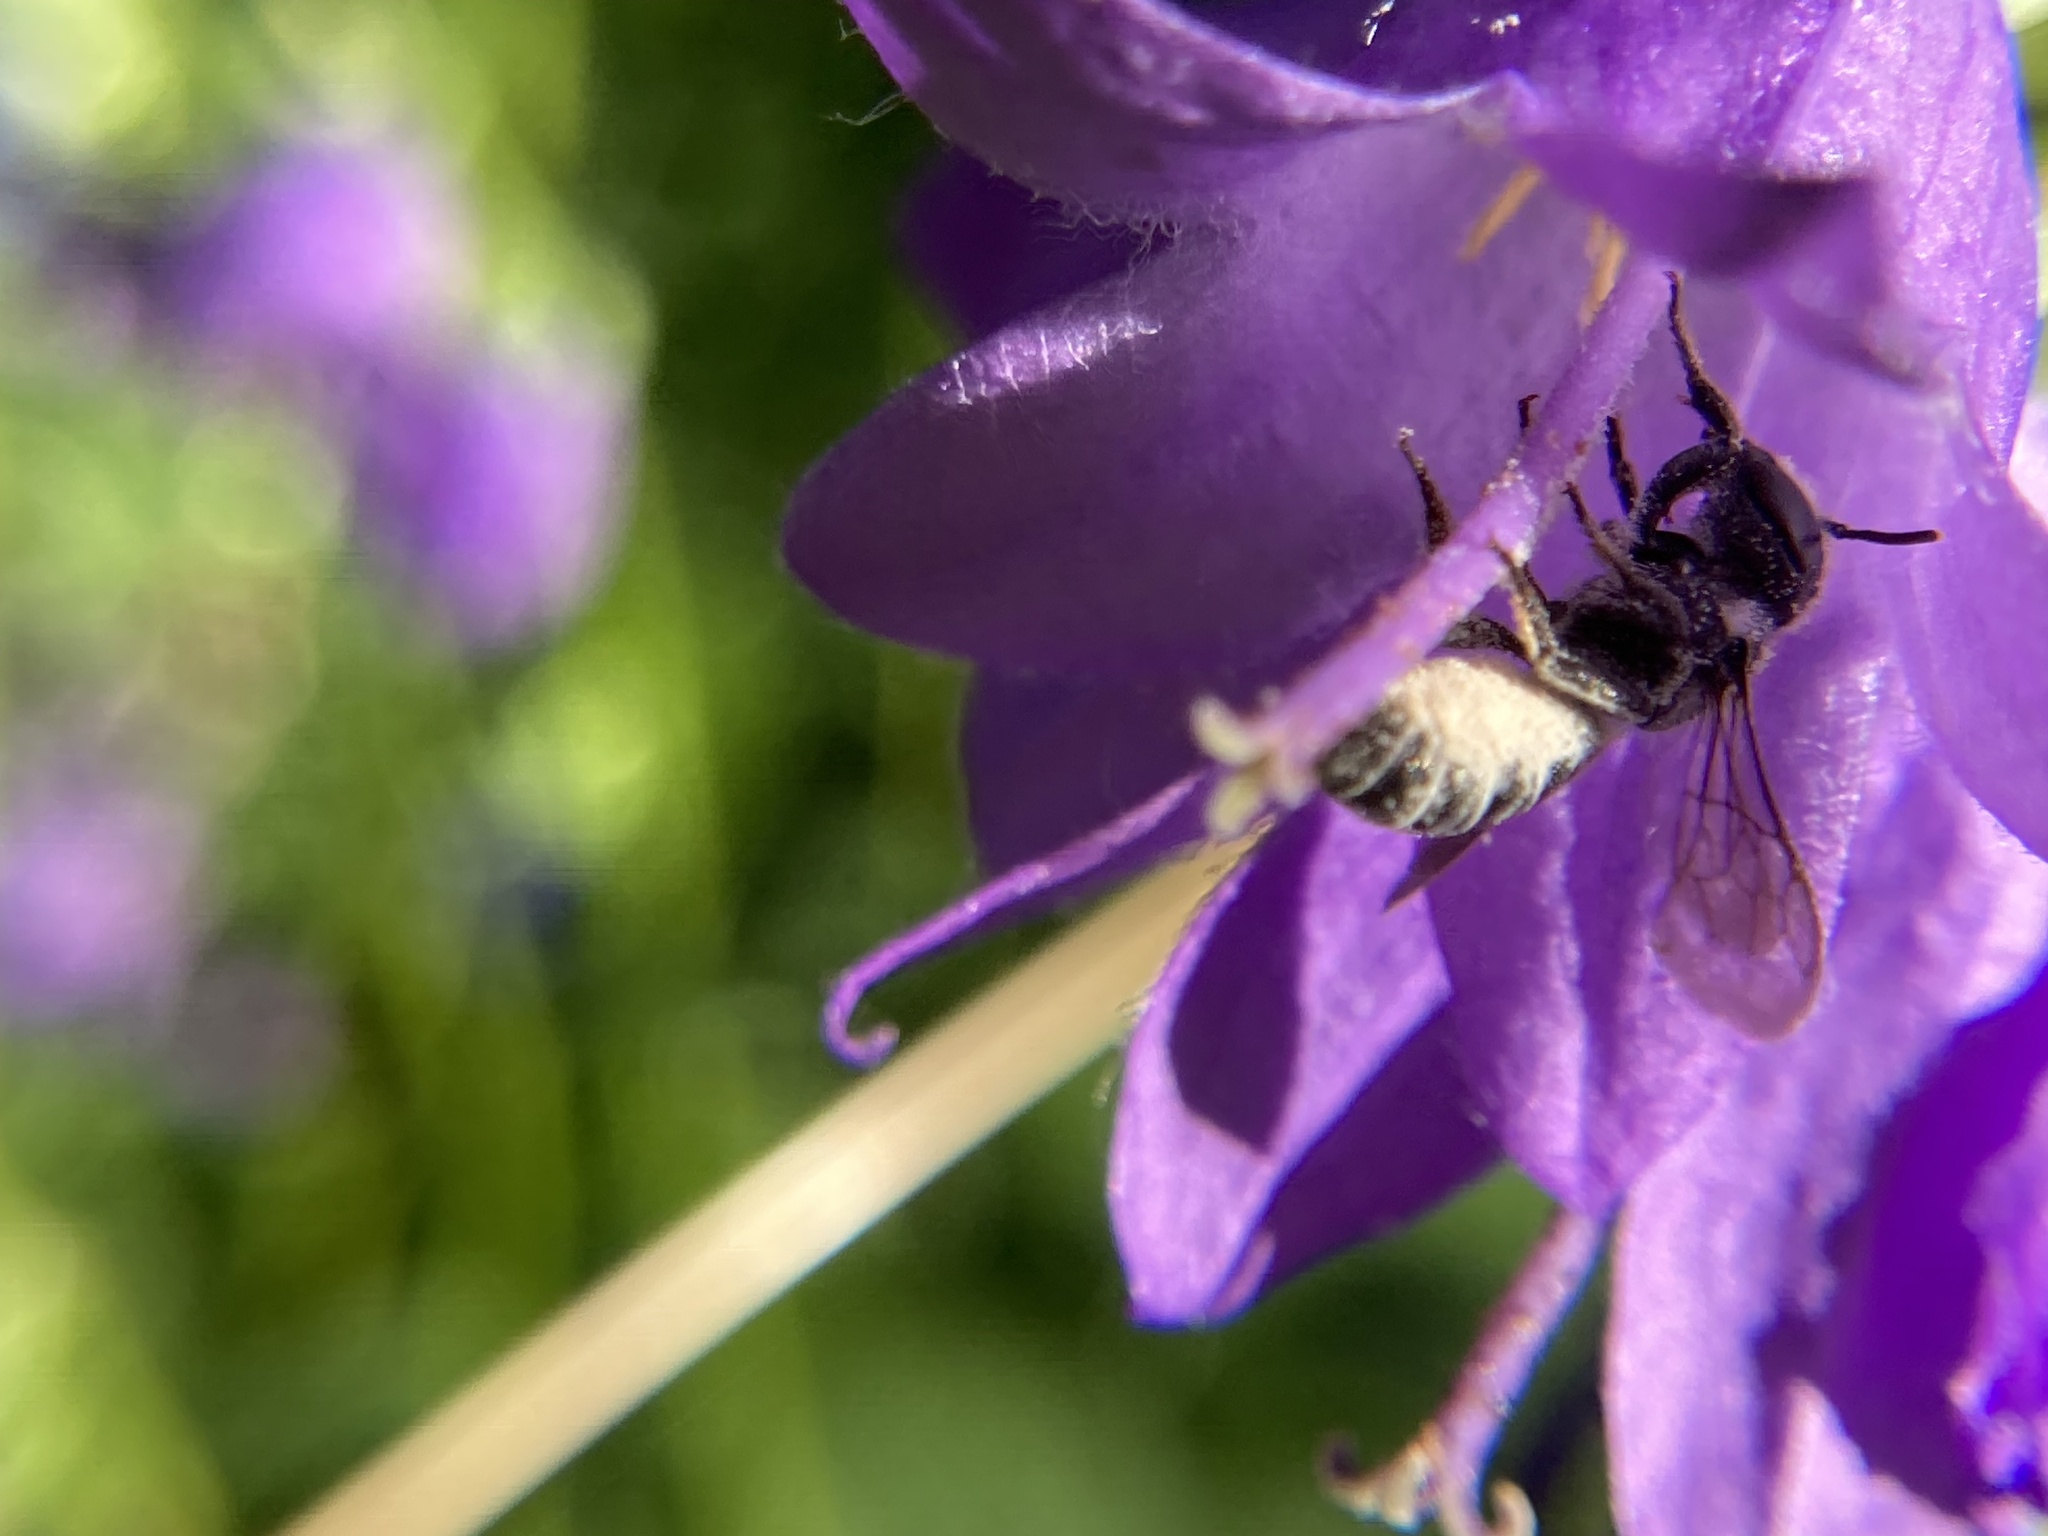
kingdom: Animalia
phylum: Arthropoda
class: Insecta
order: Hymenoptera
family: Megachilidae
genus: Megachile
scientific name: Megachile
